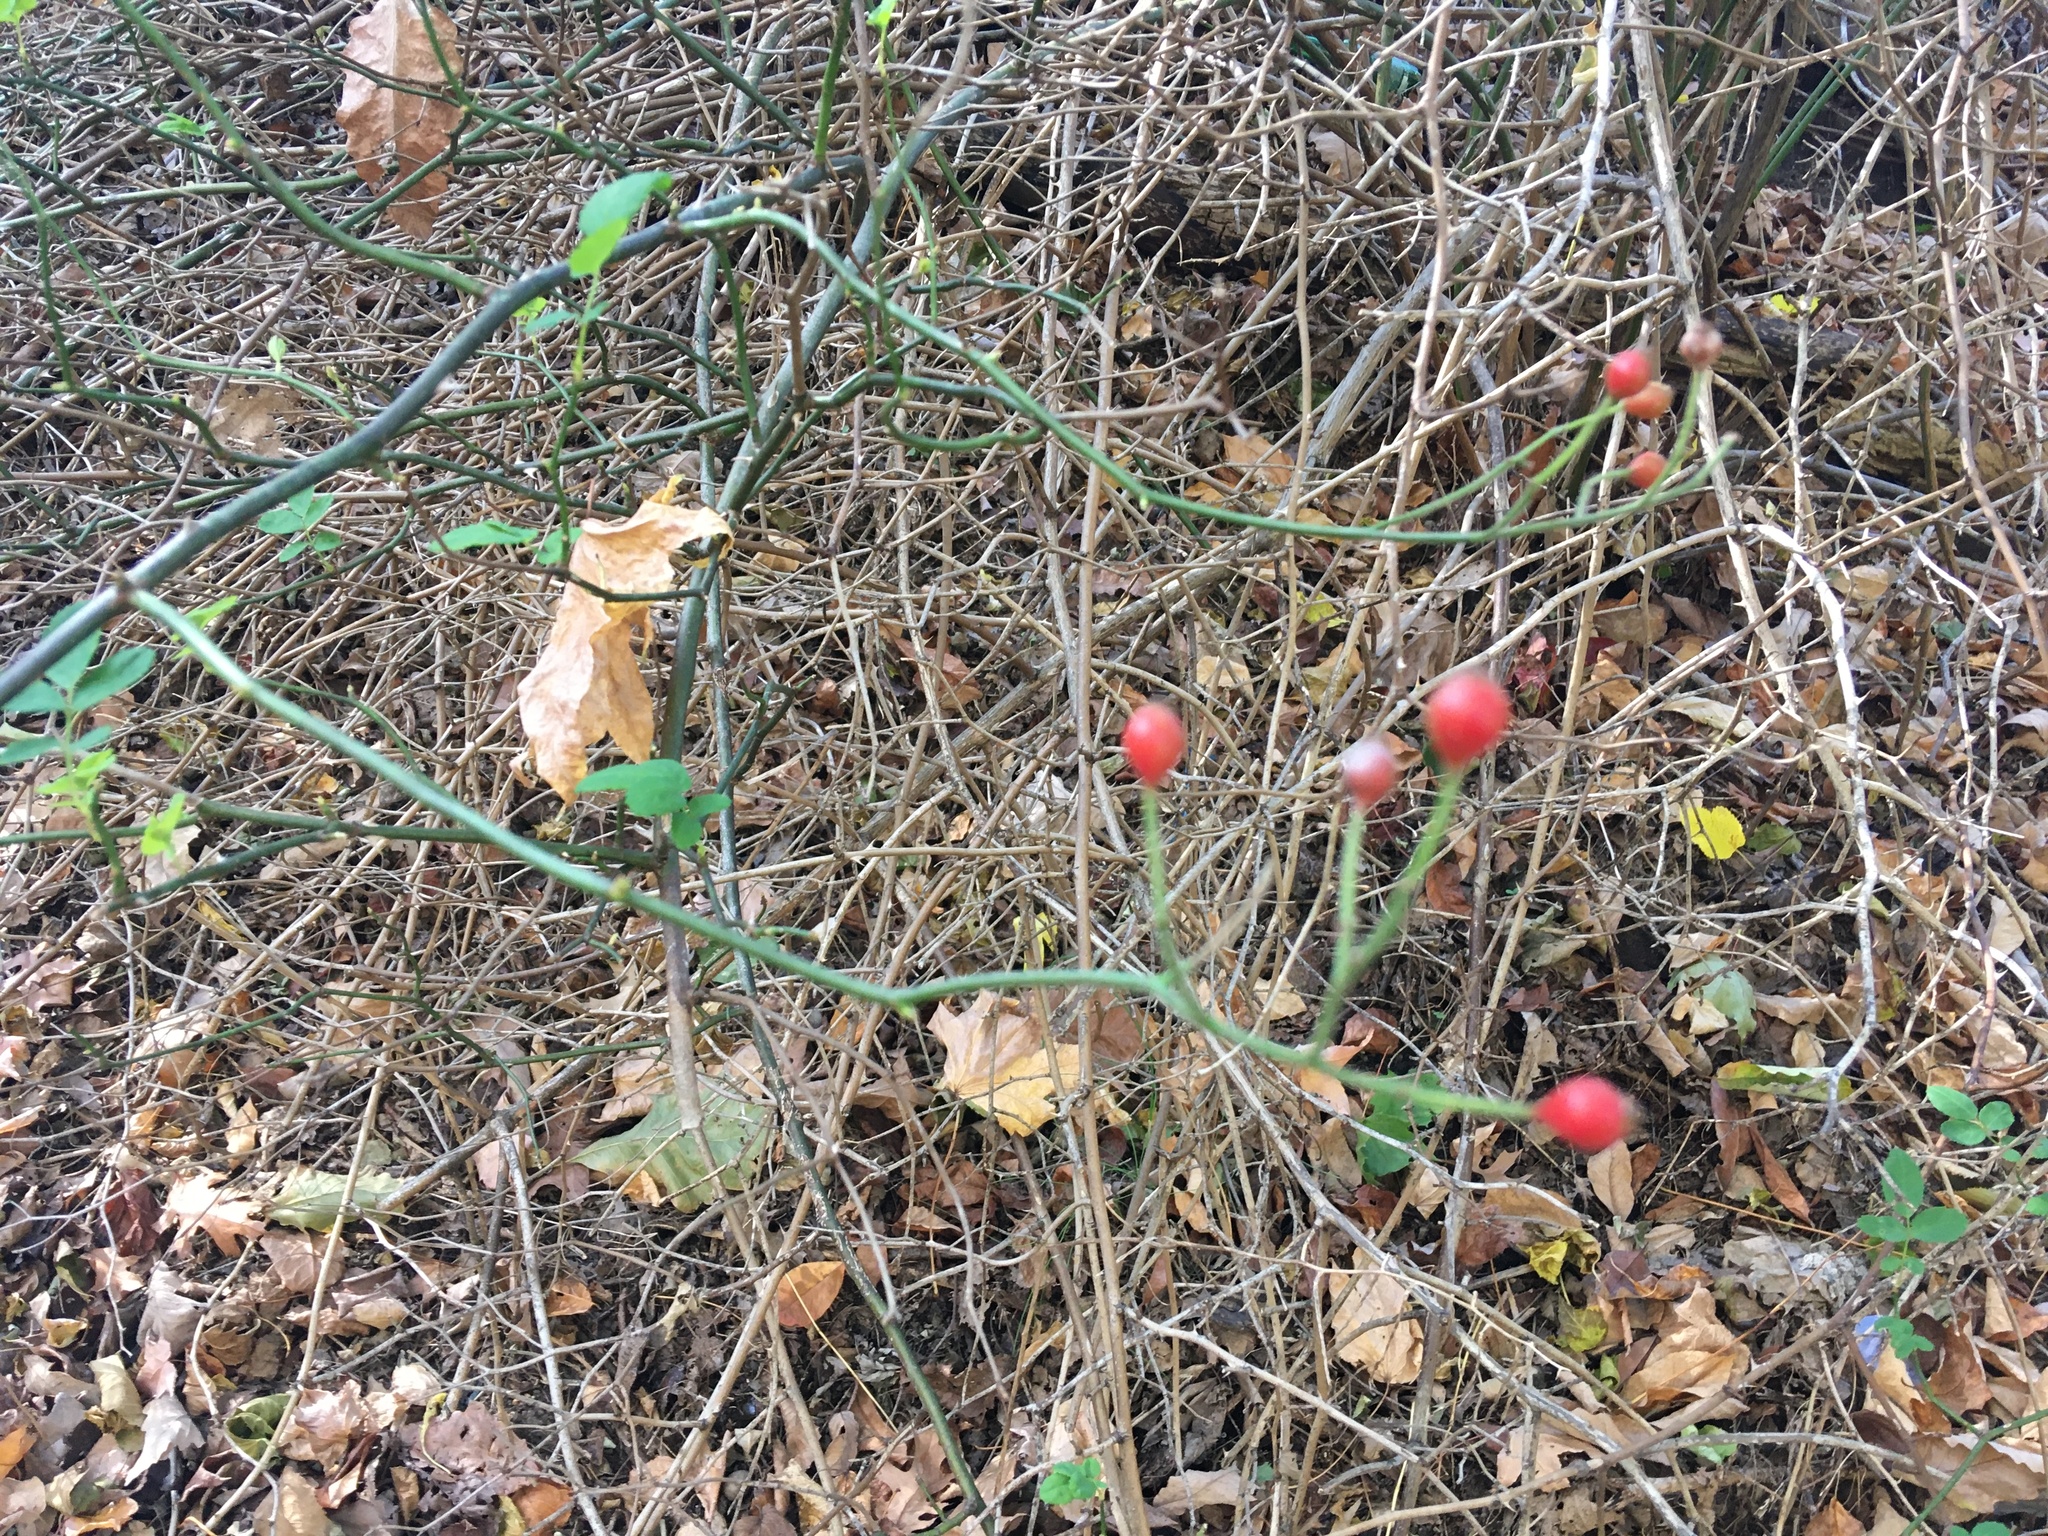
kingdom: Plantae
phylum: Tracheophyta
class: Magnoliopsida
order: Rosales
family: Rosaceae
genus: Rosa
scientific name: Rosa multiflora
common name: Multiflora rose
